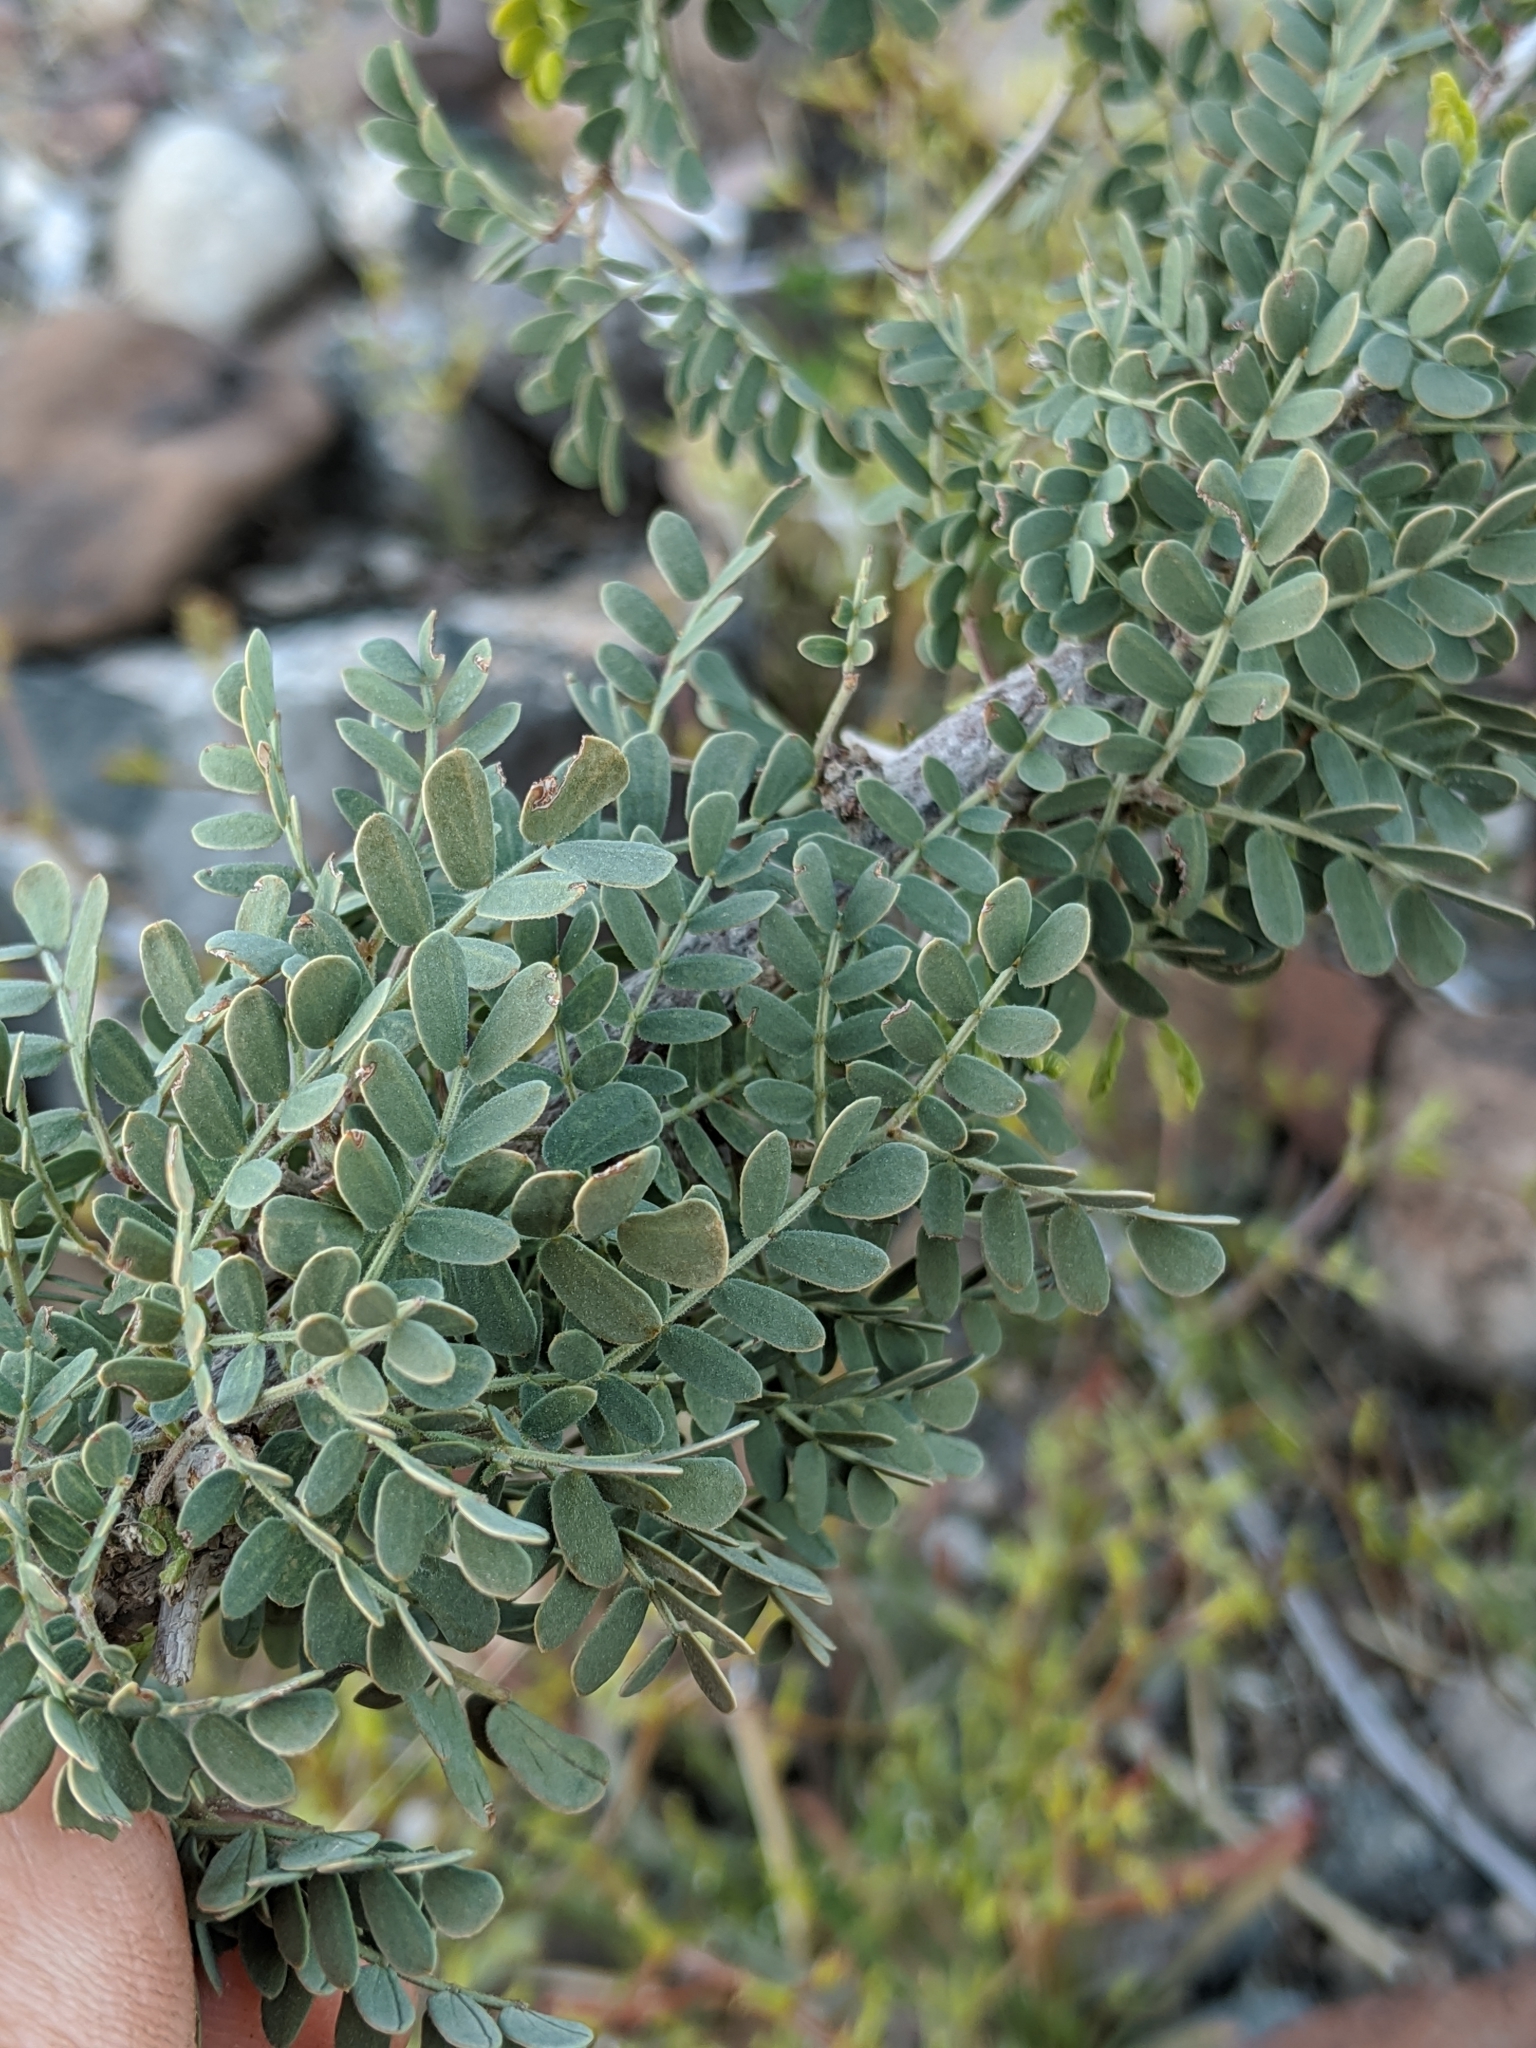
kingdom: Plantae
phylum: Tracheophyta
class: Magnoliopsida
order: Fabales
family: Fabaceae
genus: Senegalia
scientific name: Senegalia greggii
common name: Texas-mimosa
